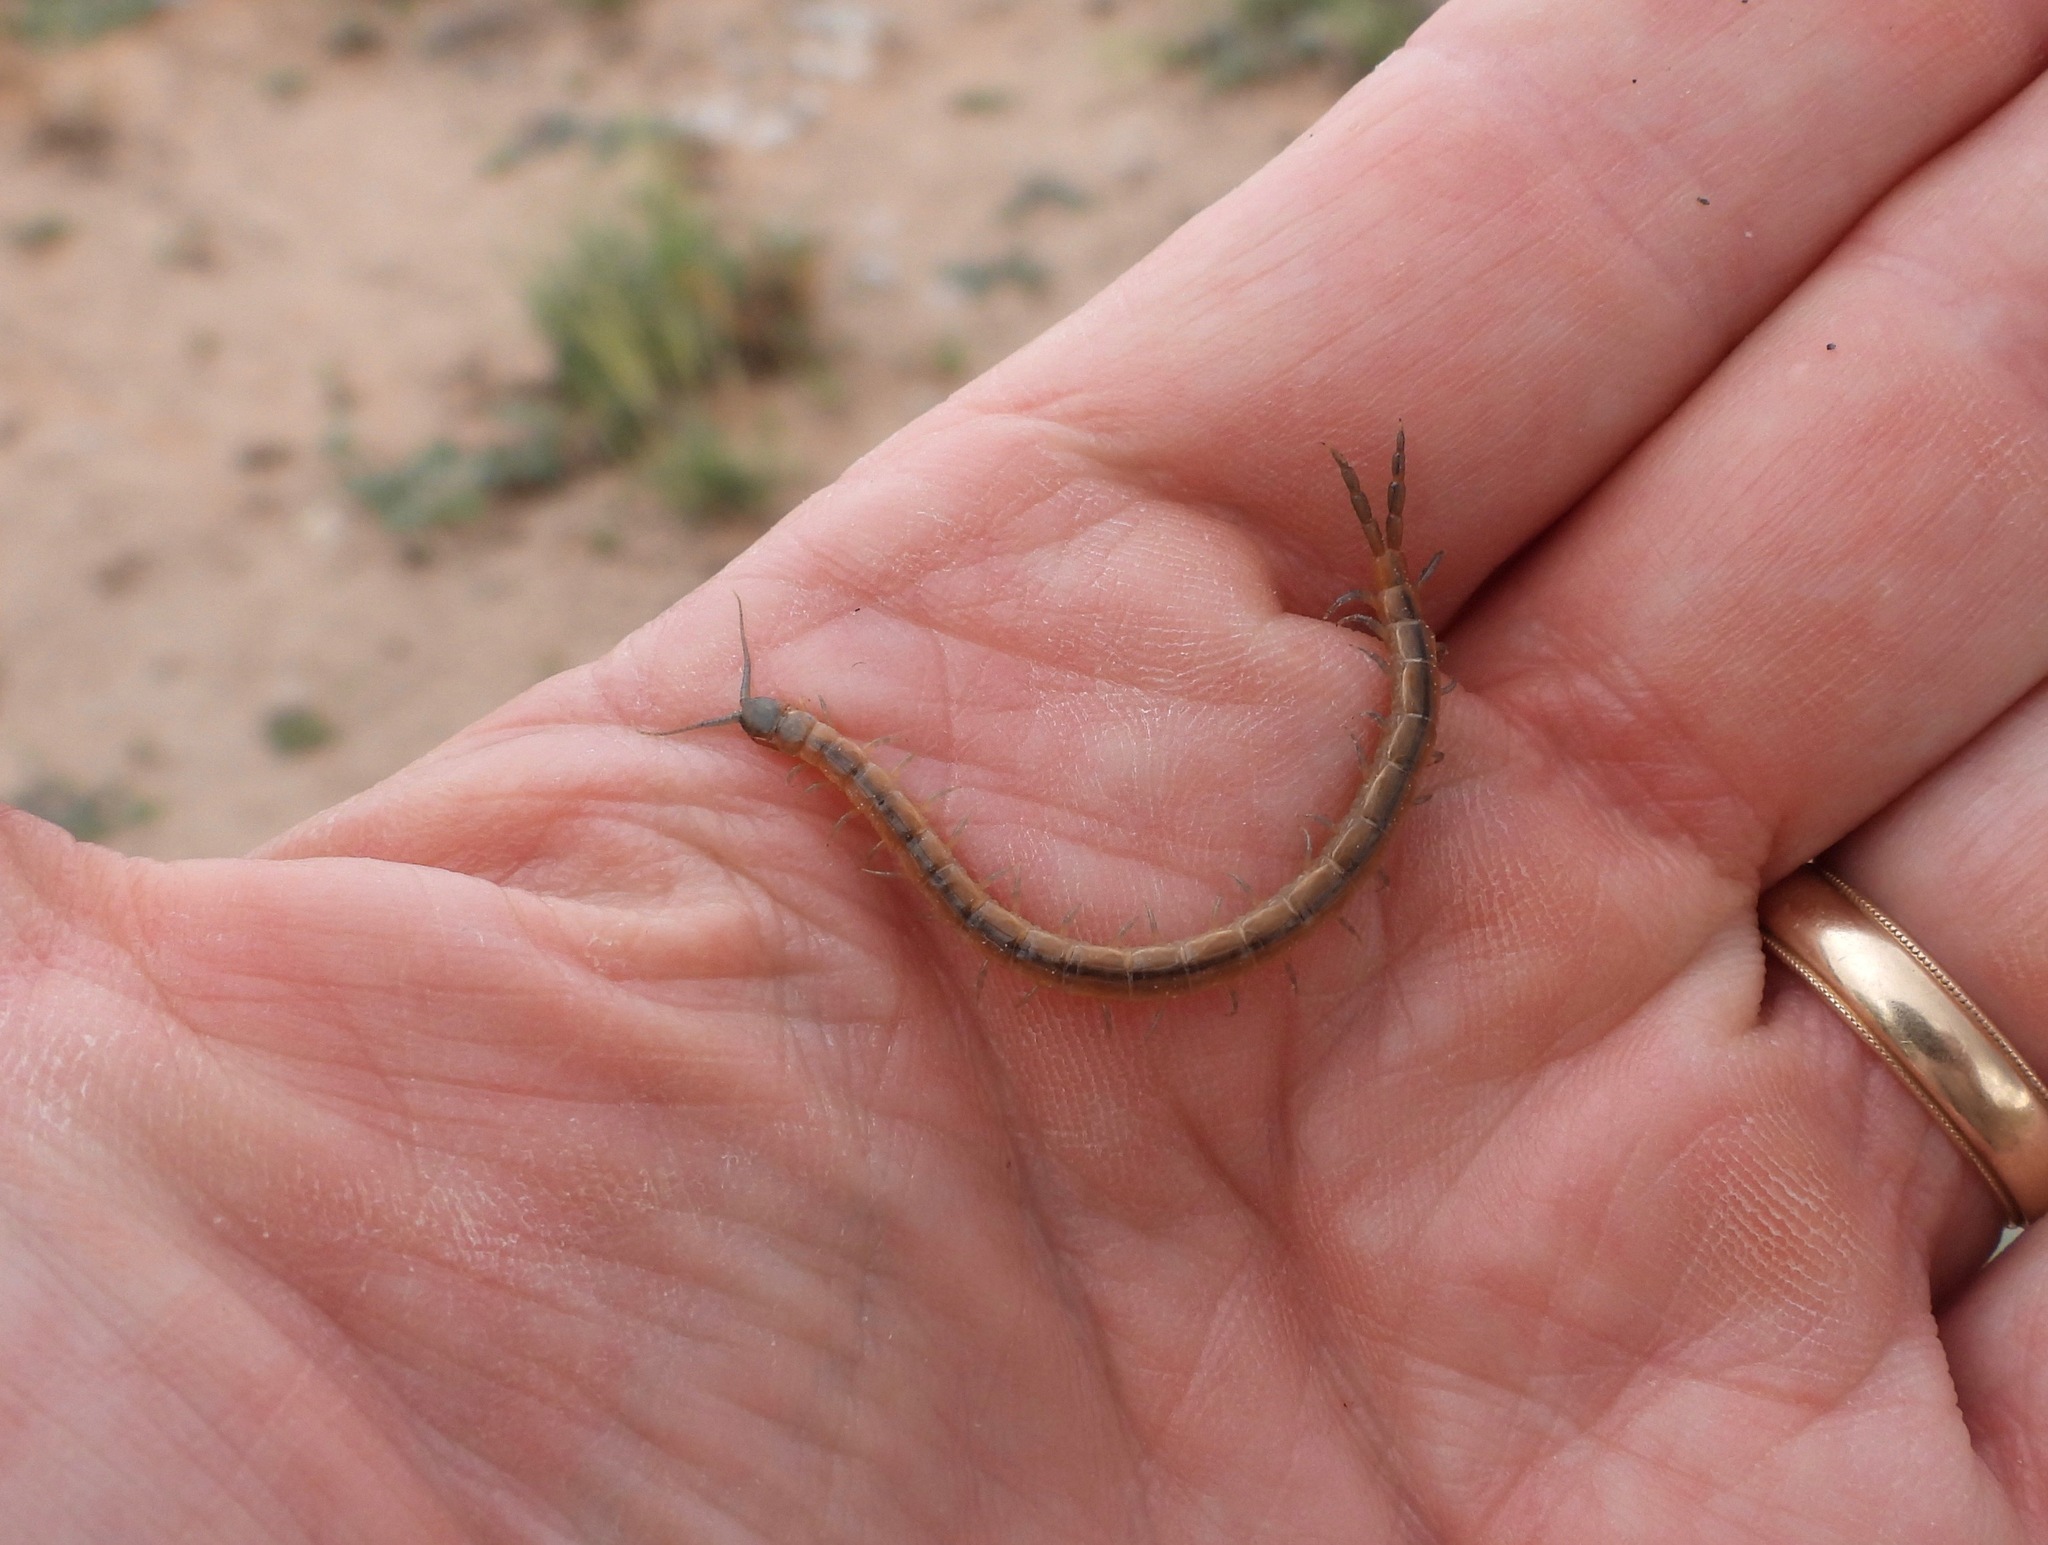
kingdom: Animalia
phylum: Arthropoda
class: Chilopoda
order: Scolopendromorpha
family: Scolopendridae
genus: Arthrorhabdus
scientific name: Arthrorhabdus pygmaeus
